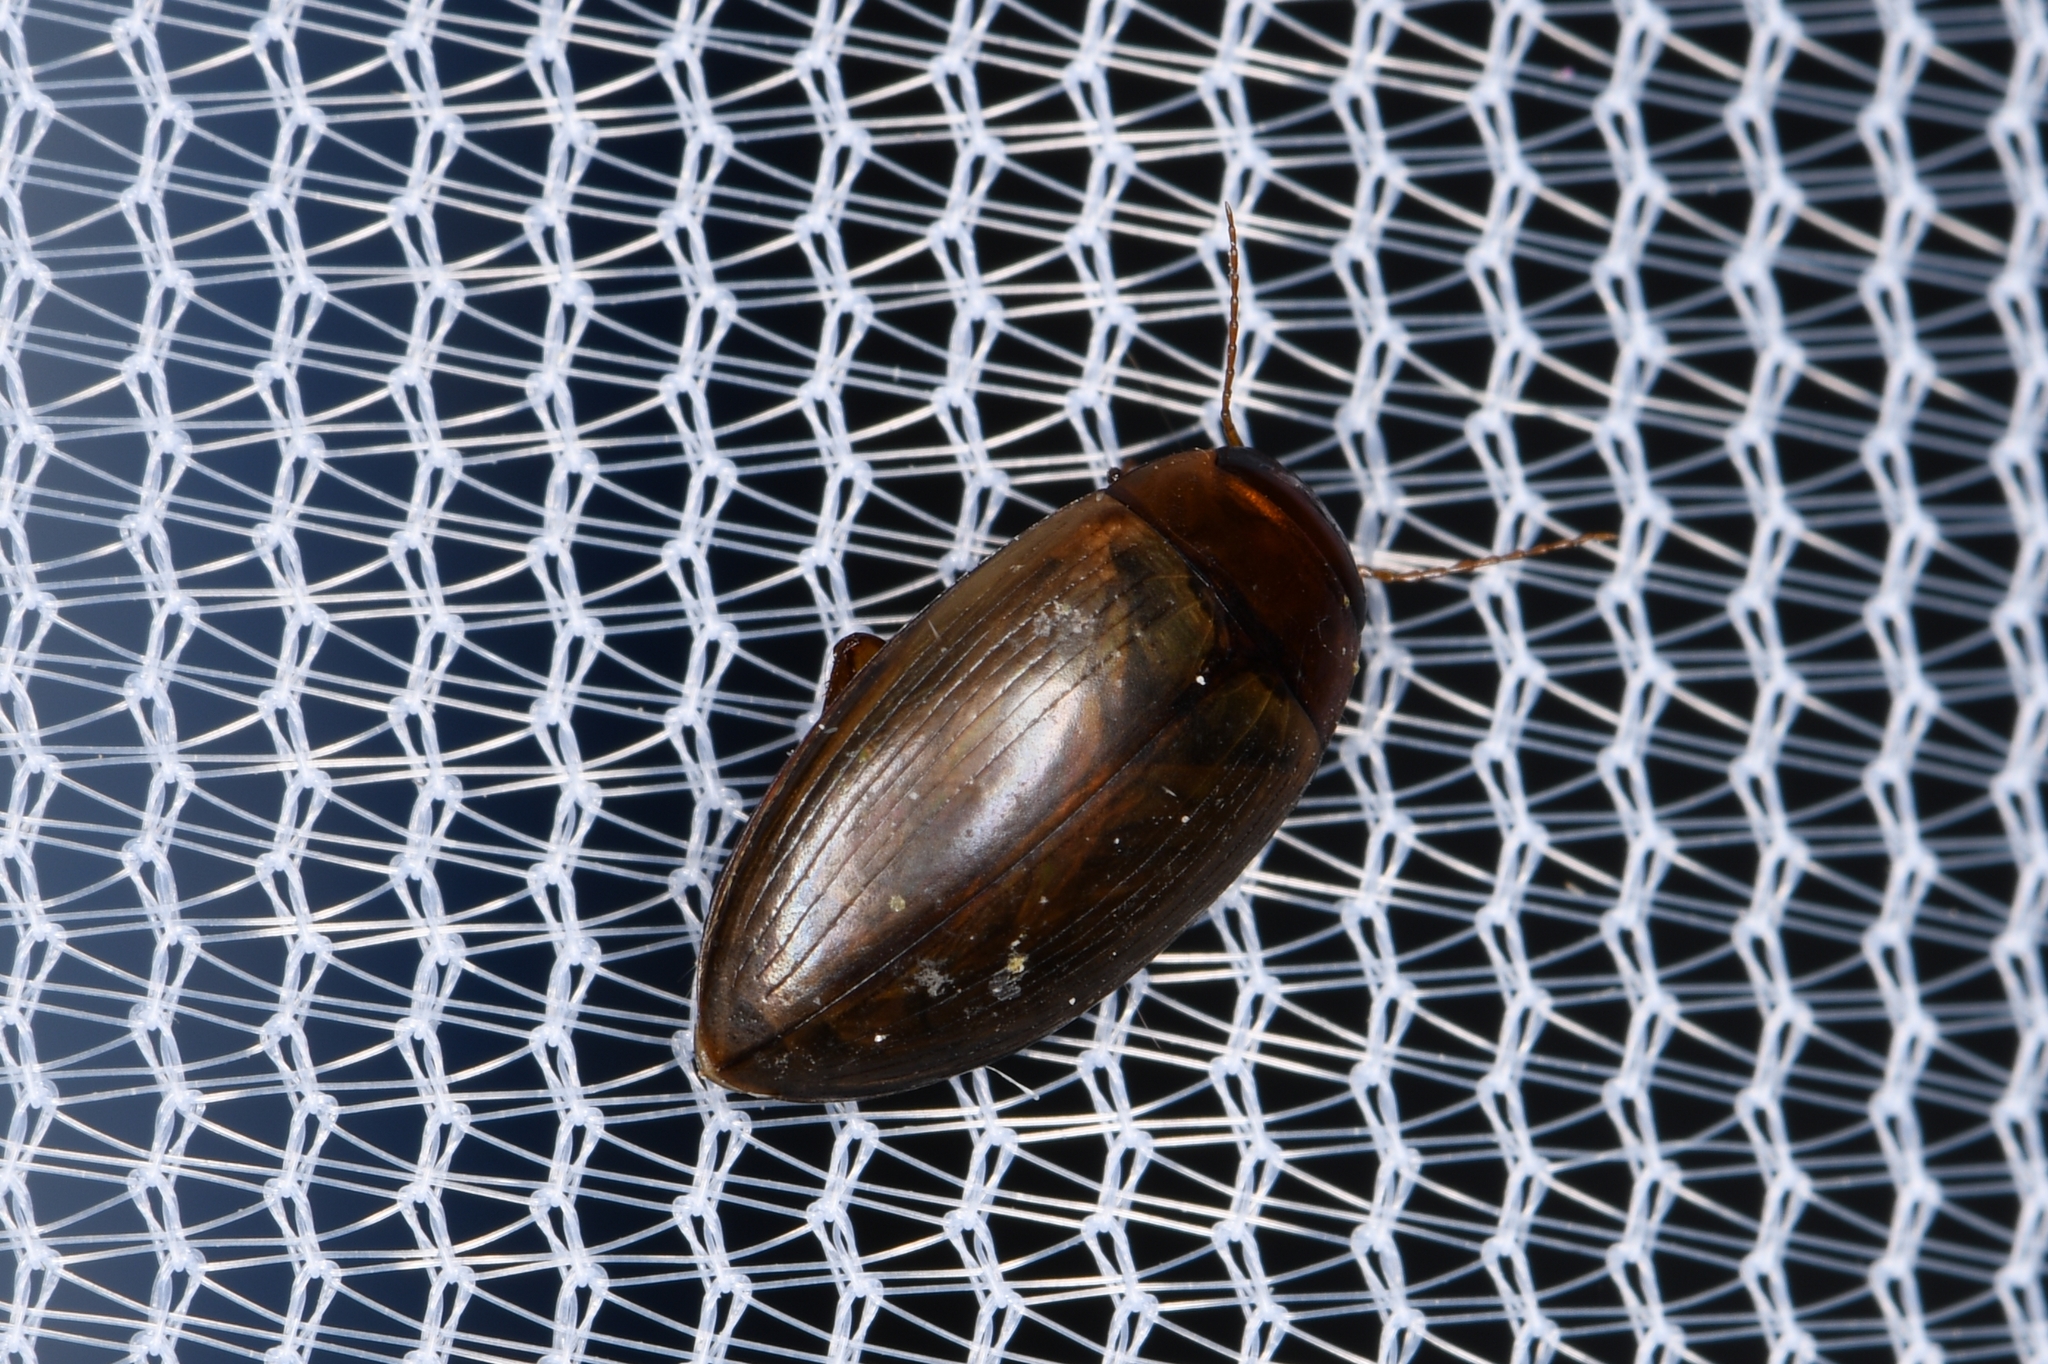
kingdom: Animalia
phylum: Arthropoda
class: Insecta
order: Coleoptera
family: Dytiscidae
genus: Copelatus
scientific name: Copelatus chevrolati
